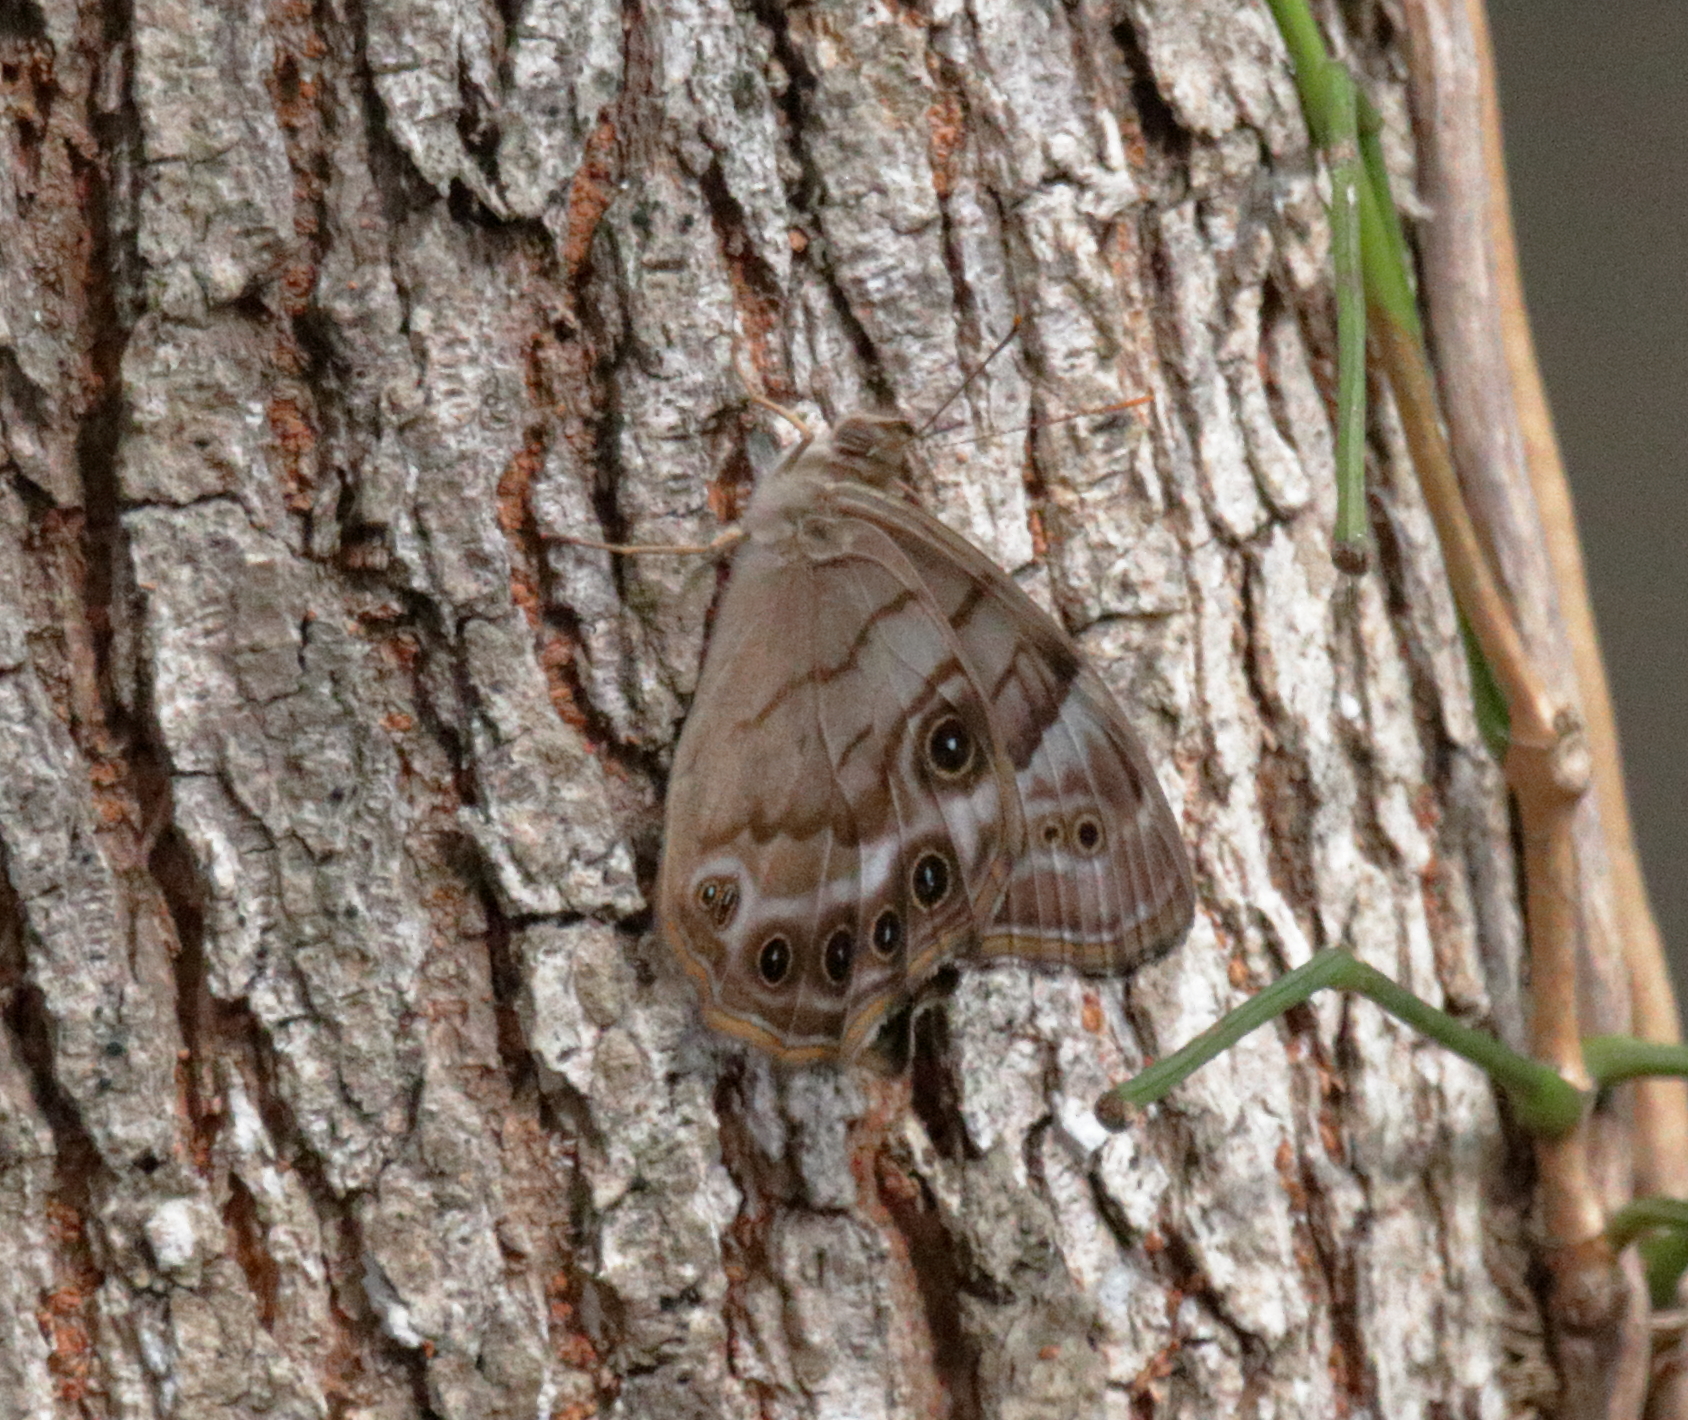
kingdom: Animalia
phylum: Arthropoda
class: Insecta
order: Lepidoptera
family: Nymphalidae
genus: Enodia
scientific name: Enodia portlandia
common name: Southern pearly-eye
